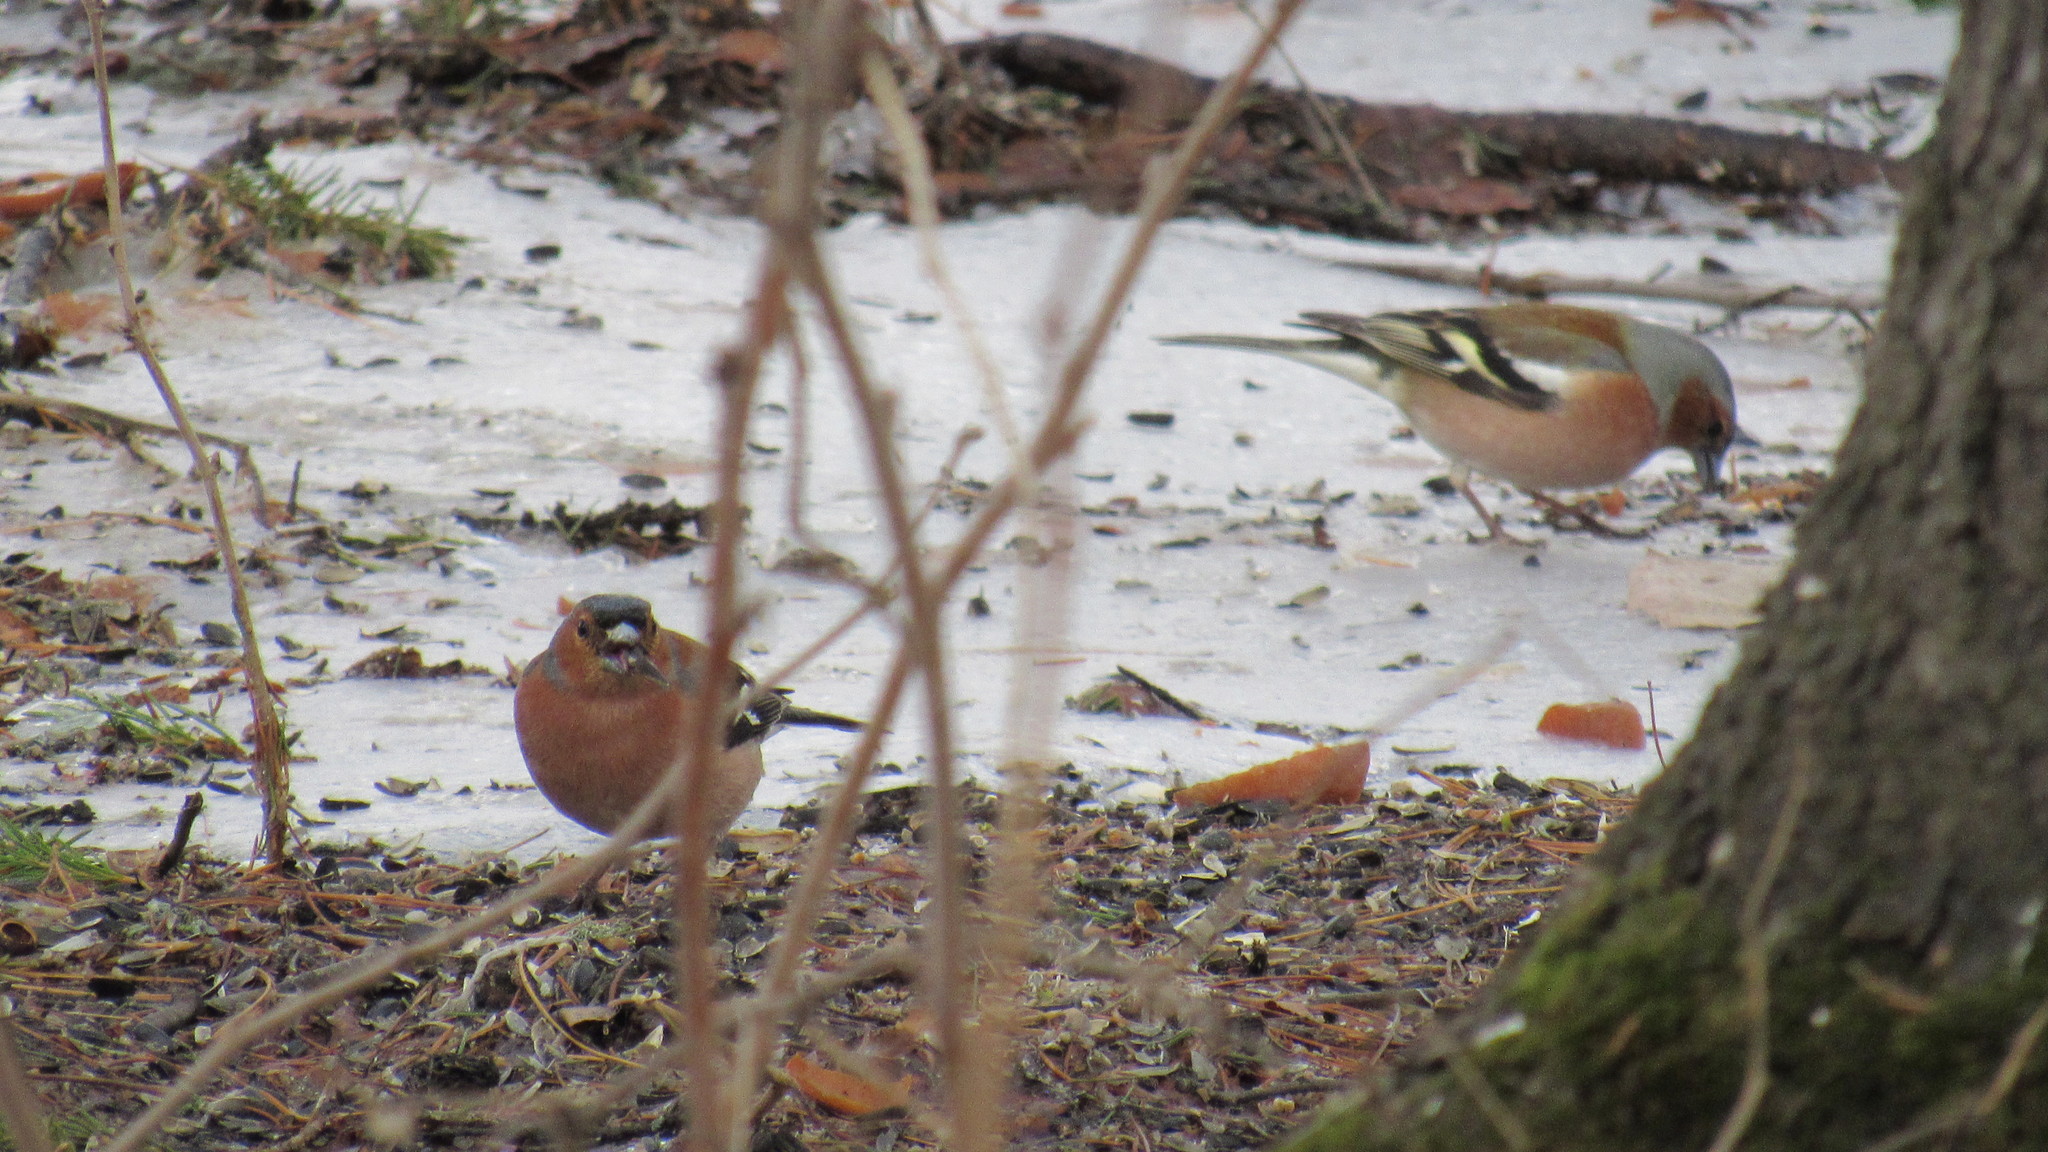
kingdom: Animalia
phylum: Chordata
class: Aves
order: Passeriformes
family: Fringillidae
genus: Fringilla
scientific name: Fringilla coelebs
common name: Common chaffinch
